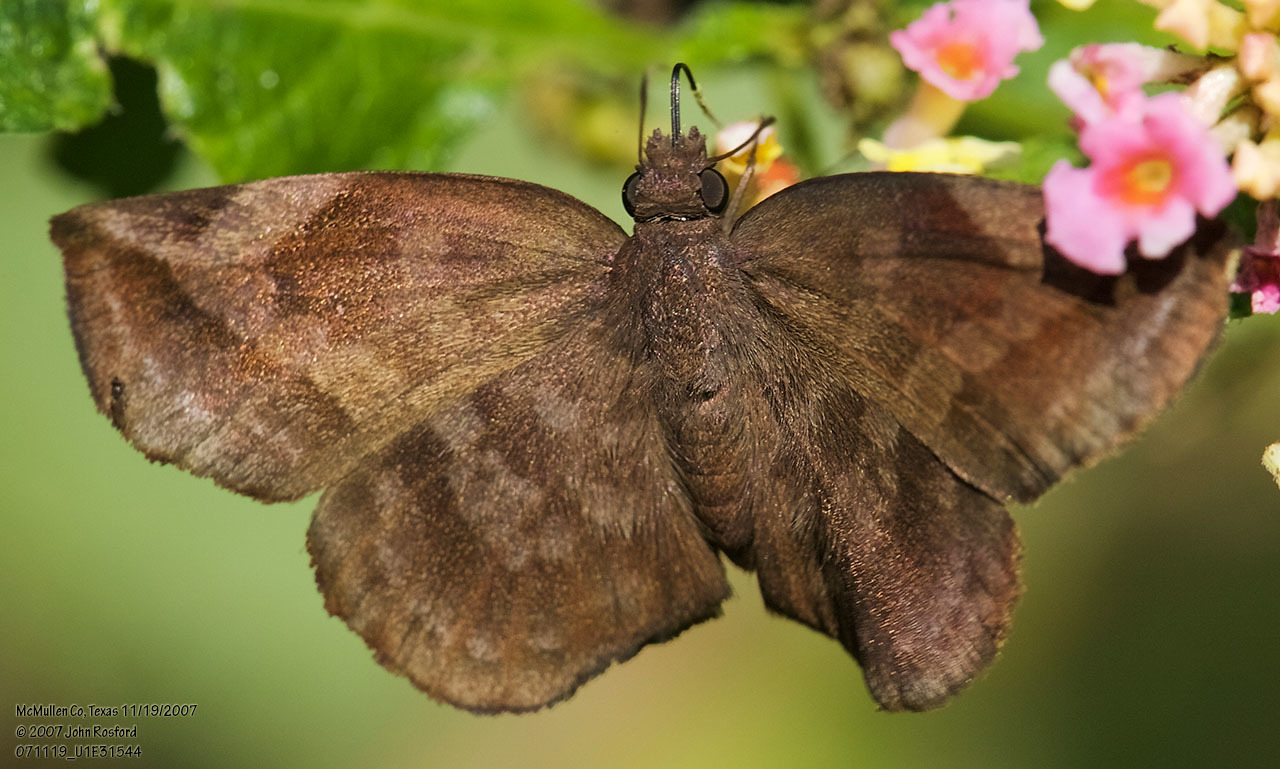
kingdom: Animalia
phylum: Arthropoda
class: Insecta
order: Lepidoptera
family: Hesperiidae
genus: Achlyodes
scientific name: Achlyodes thraso
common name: Sickle-winged skipper
